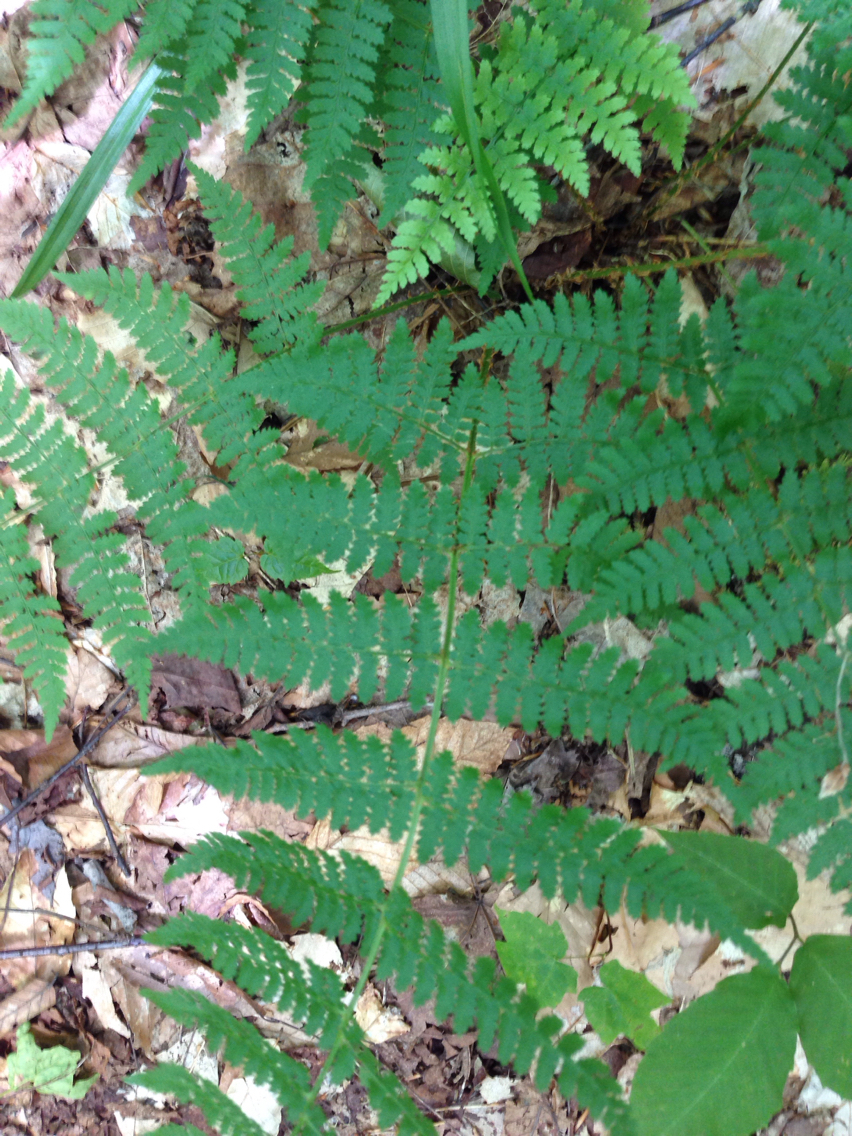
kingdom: Plantae
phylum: Tracheophyta
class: Polypodiopsida
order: Polypodiales
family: Dryopteridaceae
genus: Dryopteris
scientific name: Dryopteris intermedia
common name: Evergreen wood fern
